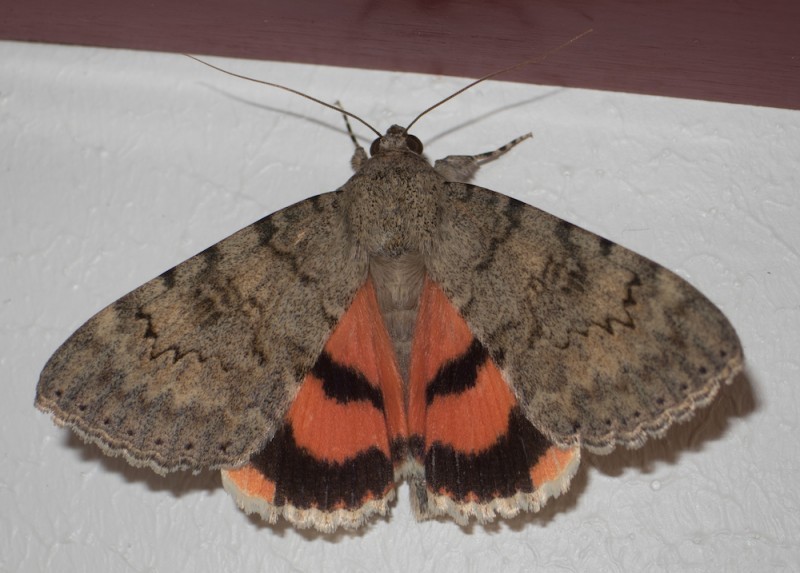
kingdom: Animalia
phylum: Arthropoda
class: Insecta
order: Lepidoptera
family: Erebidae
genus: Catocala
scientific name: Catocala puerpera
